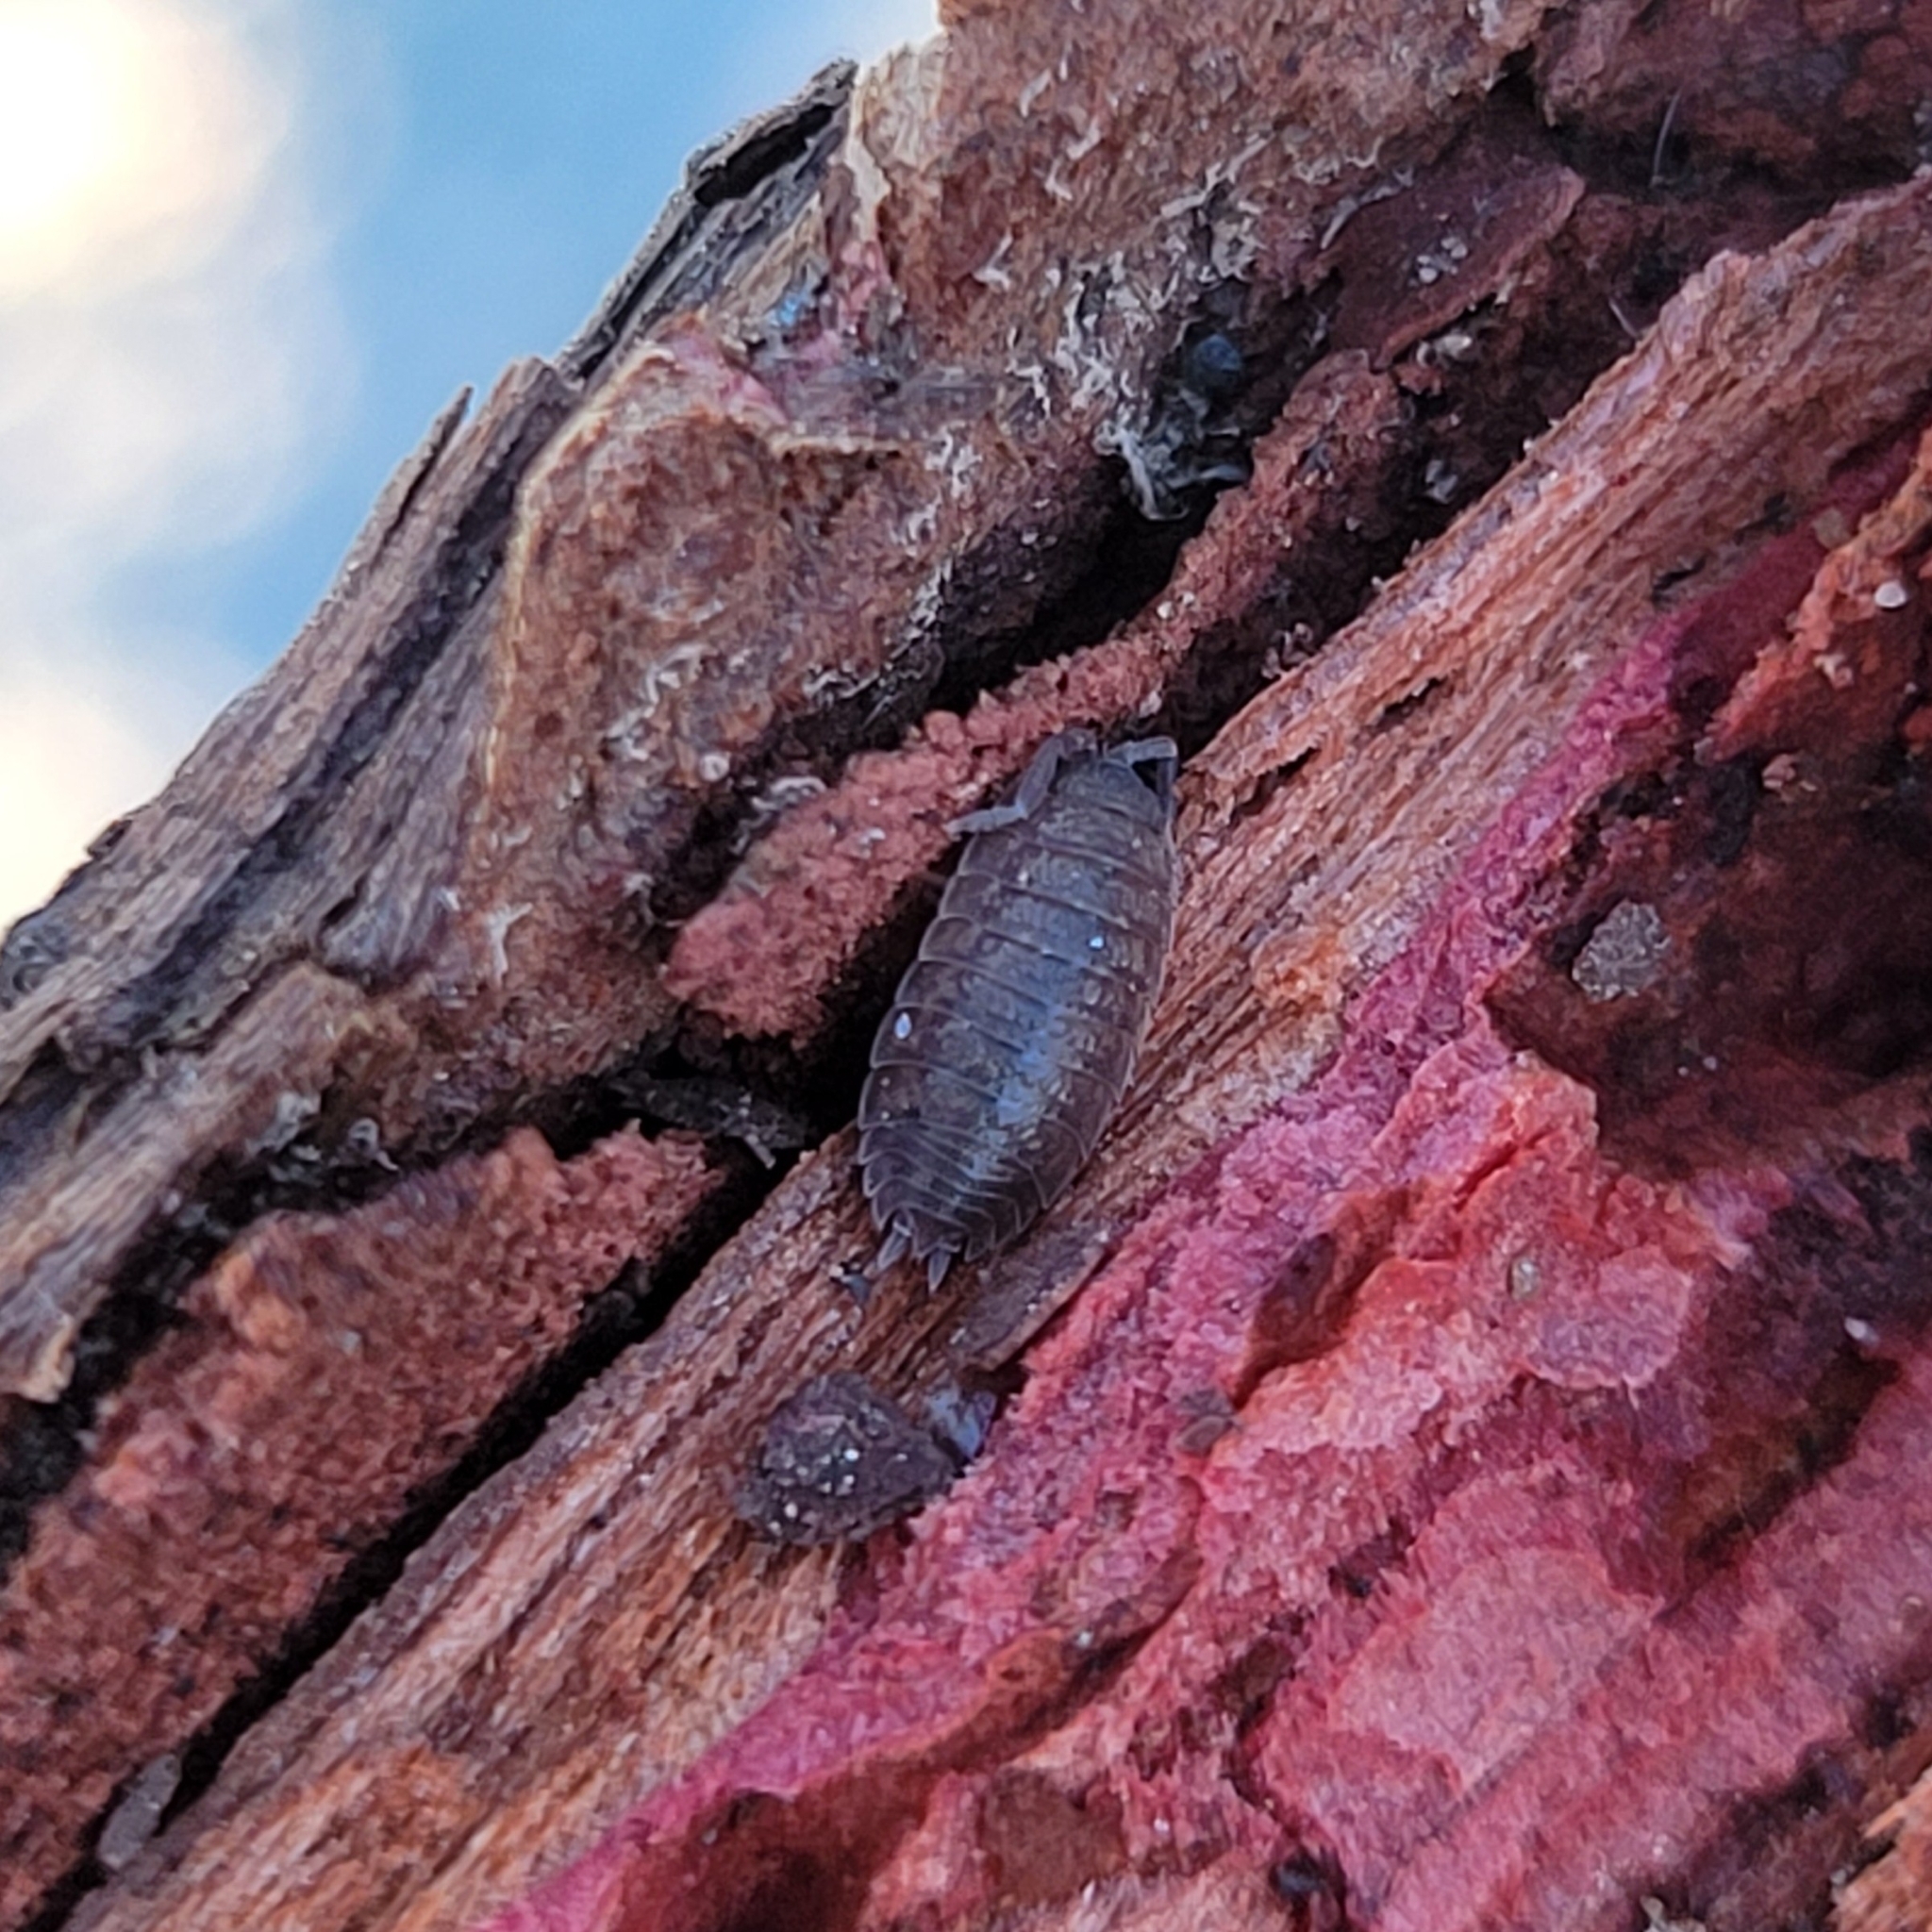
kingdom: Animalia
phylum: Arthropoda
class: Malacostraca
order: Isopoda
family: Porcellionidae
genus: Porcellio
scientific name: Porcellio scaber
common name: Common rough woodlouse
